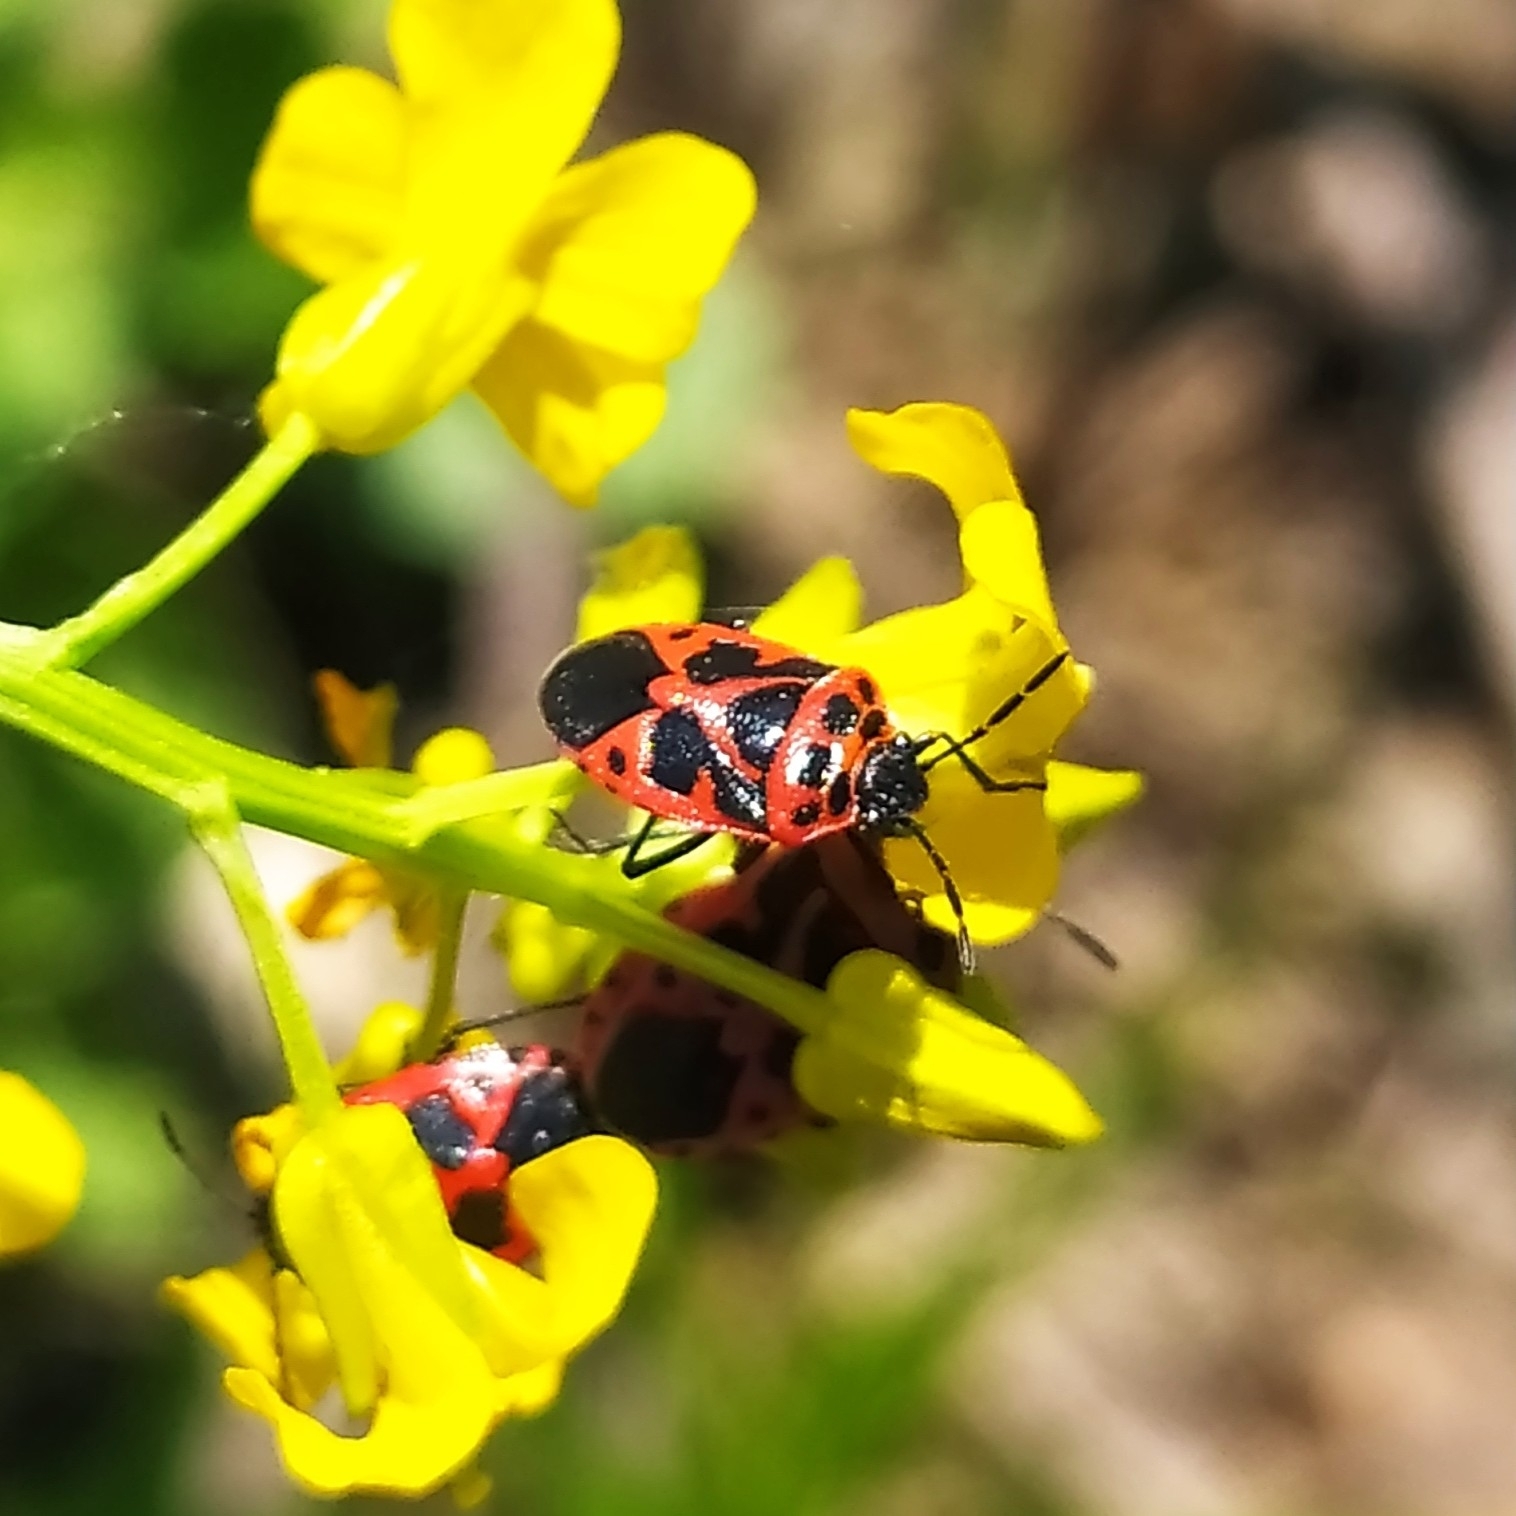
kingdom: Animalia
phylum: Arthropoda
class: Insecta
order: Hemiptera
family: Pentatomidae
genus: Eurydema
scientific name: Eurydema dominulus
